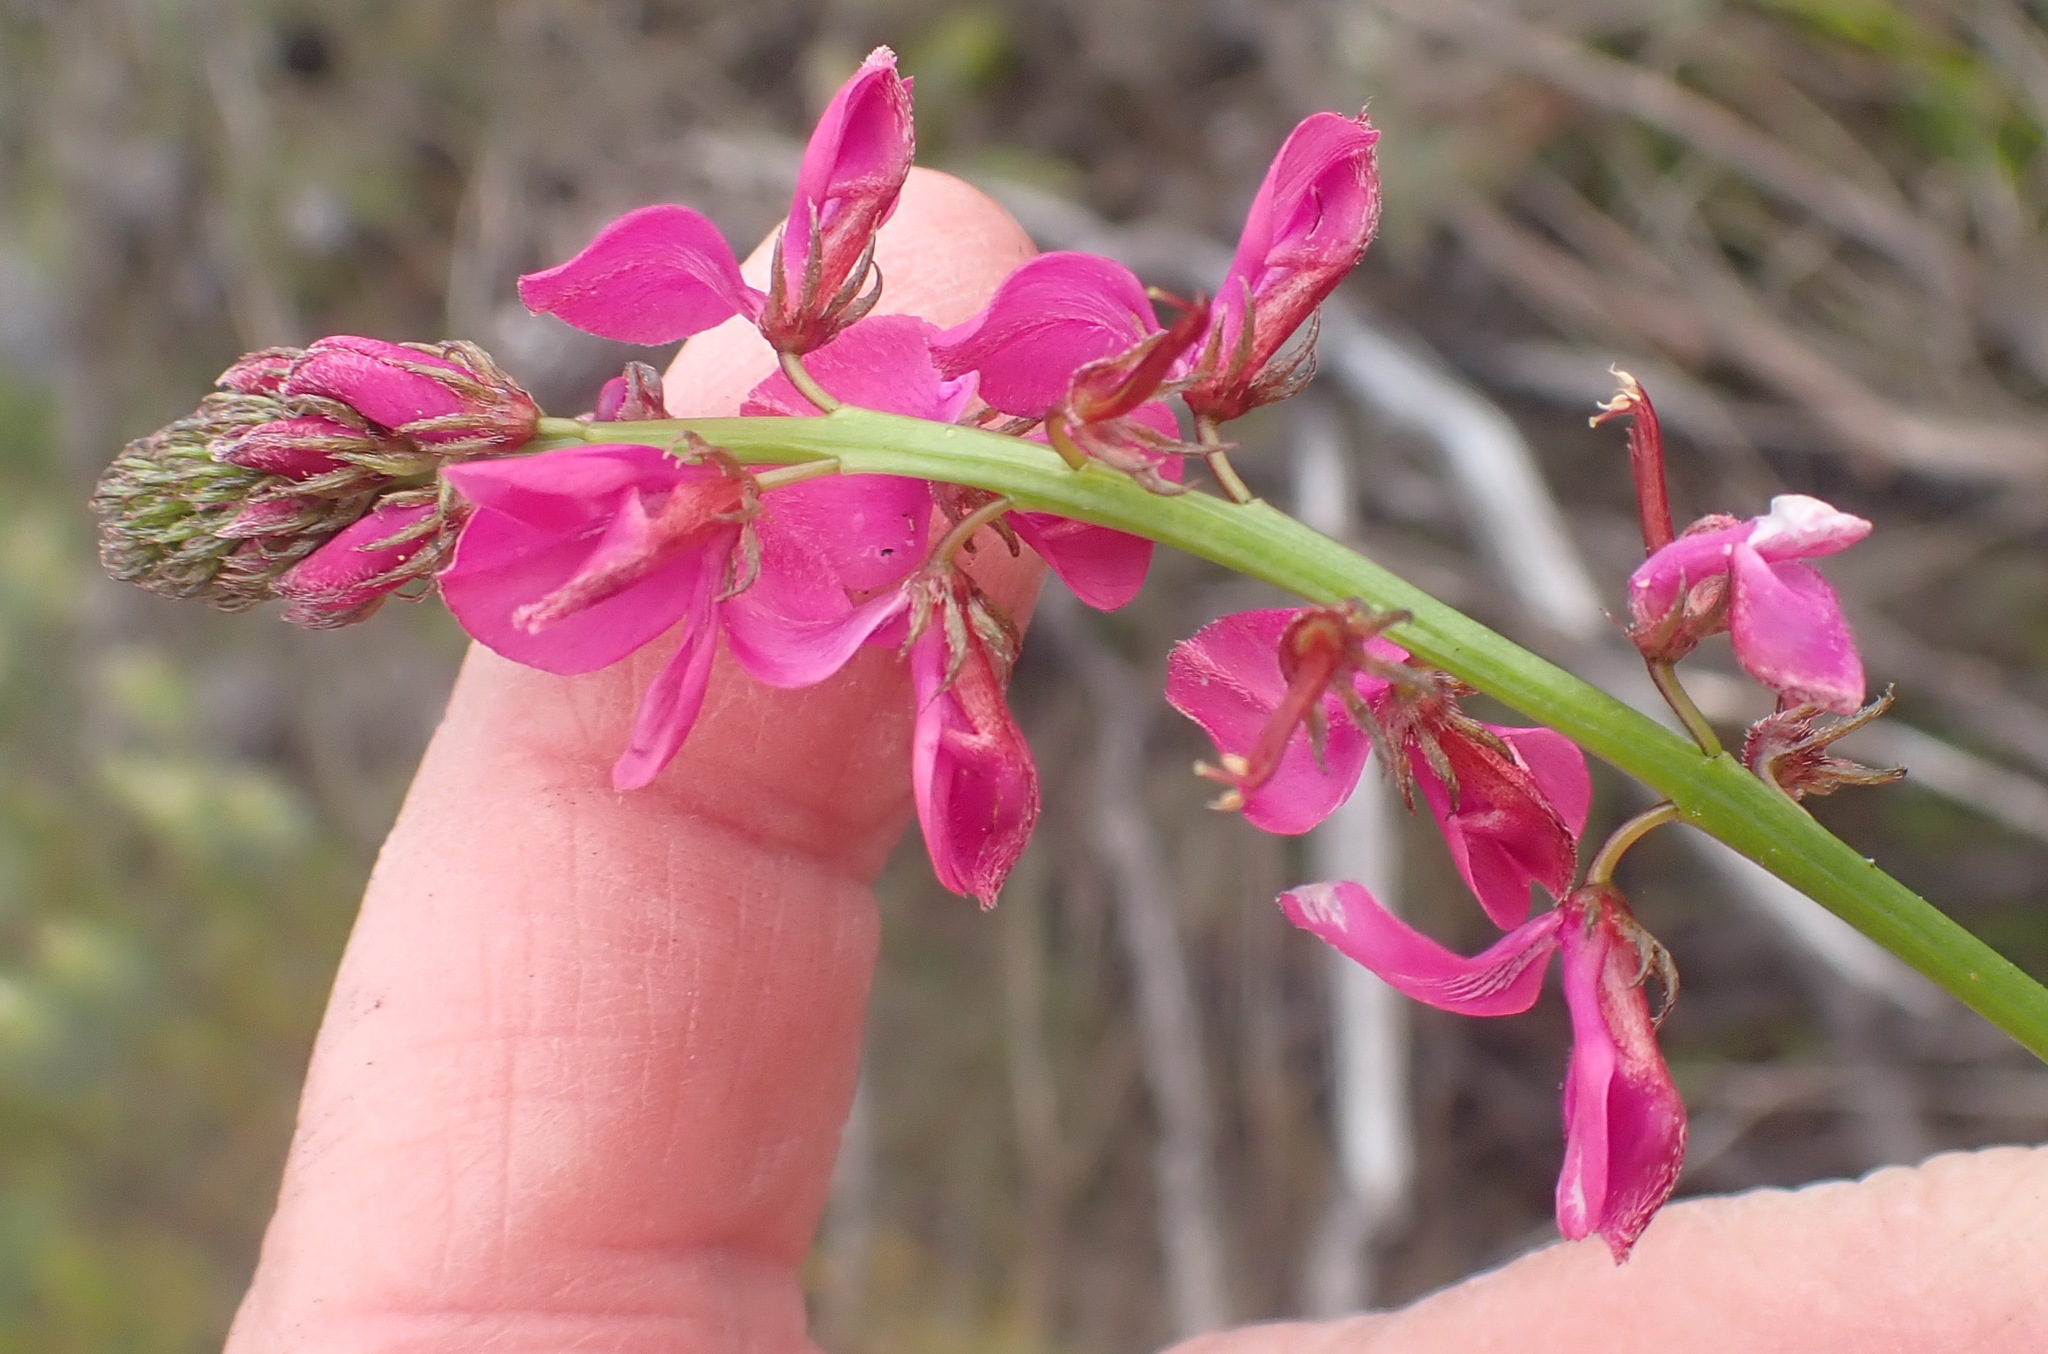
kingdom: Plantae
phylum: Tracheophyta
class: Magnoliopsida
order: Fabales
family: Fabaceae
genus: Indigofera
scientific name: Indigofera capillaris
